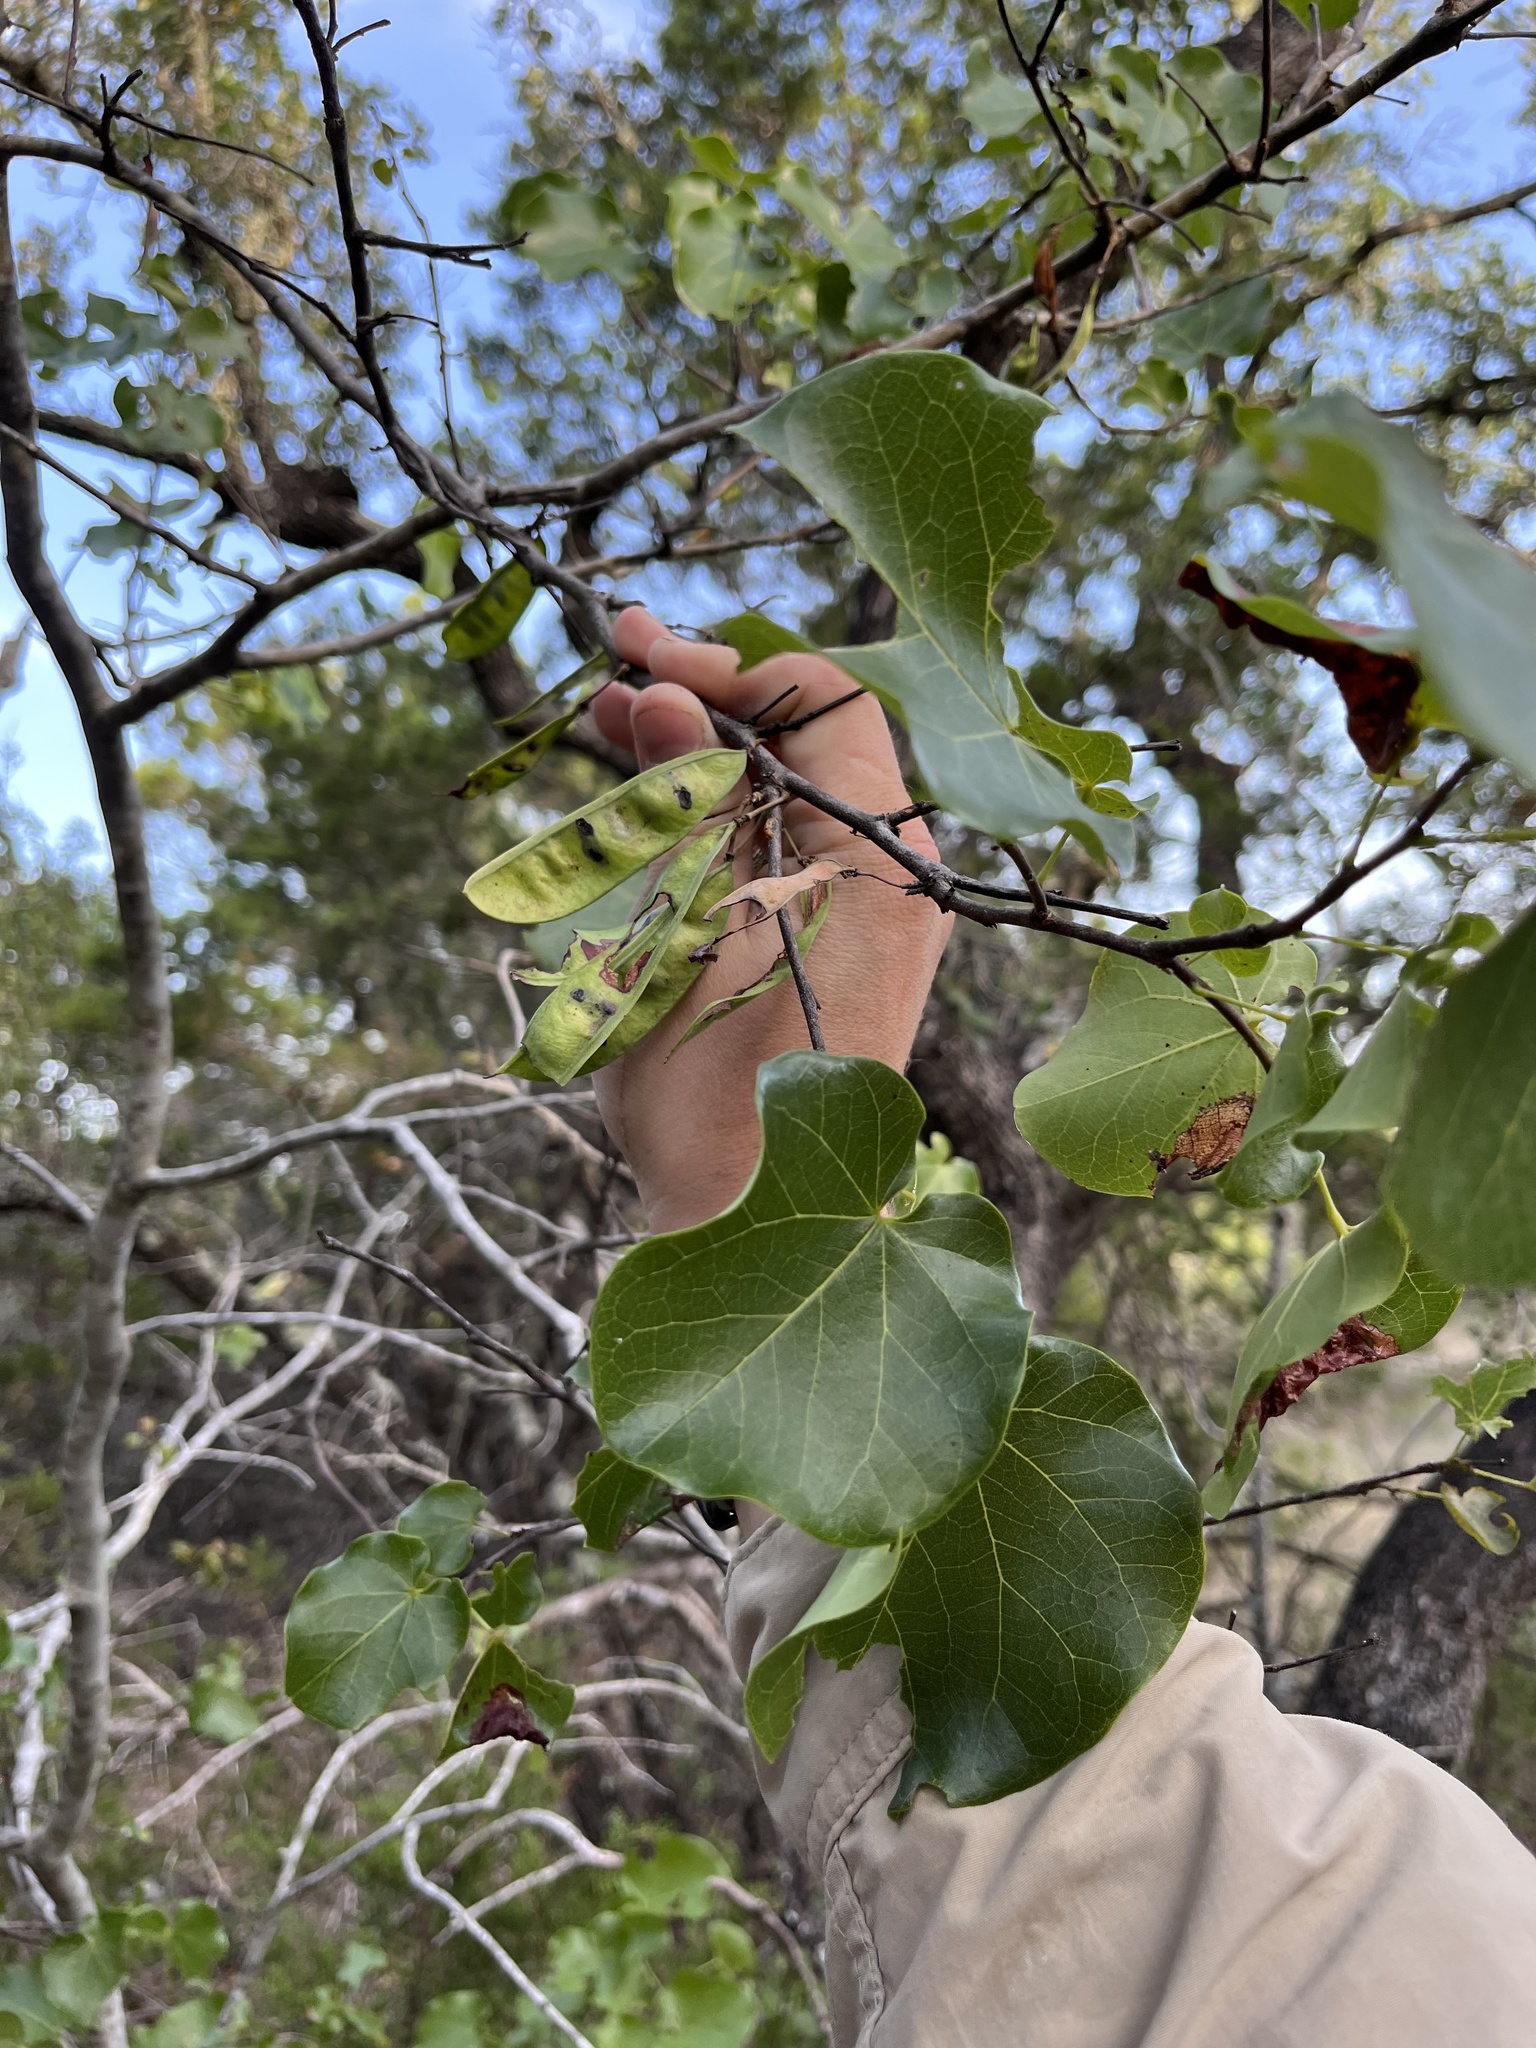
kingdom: Plantae
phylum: Tracheophyta
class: Magnoliopsida
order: Fabales
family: Fabaceae
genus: Cercis
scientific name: Cercis canadensis
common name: Eastern redbud
